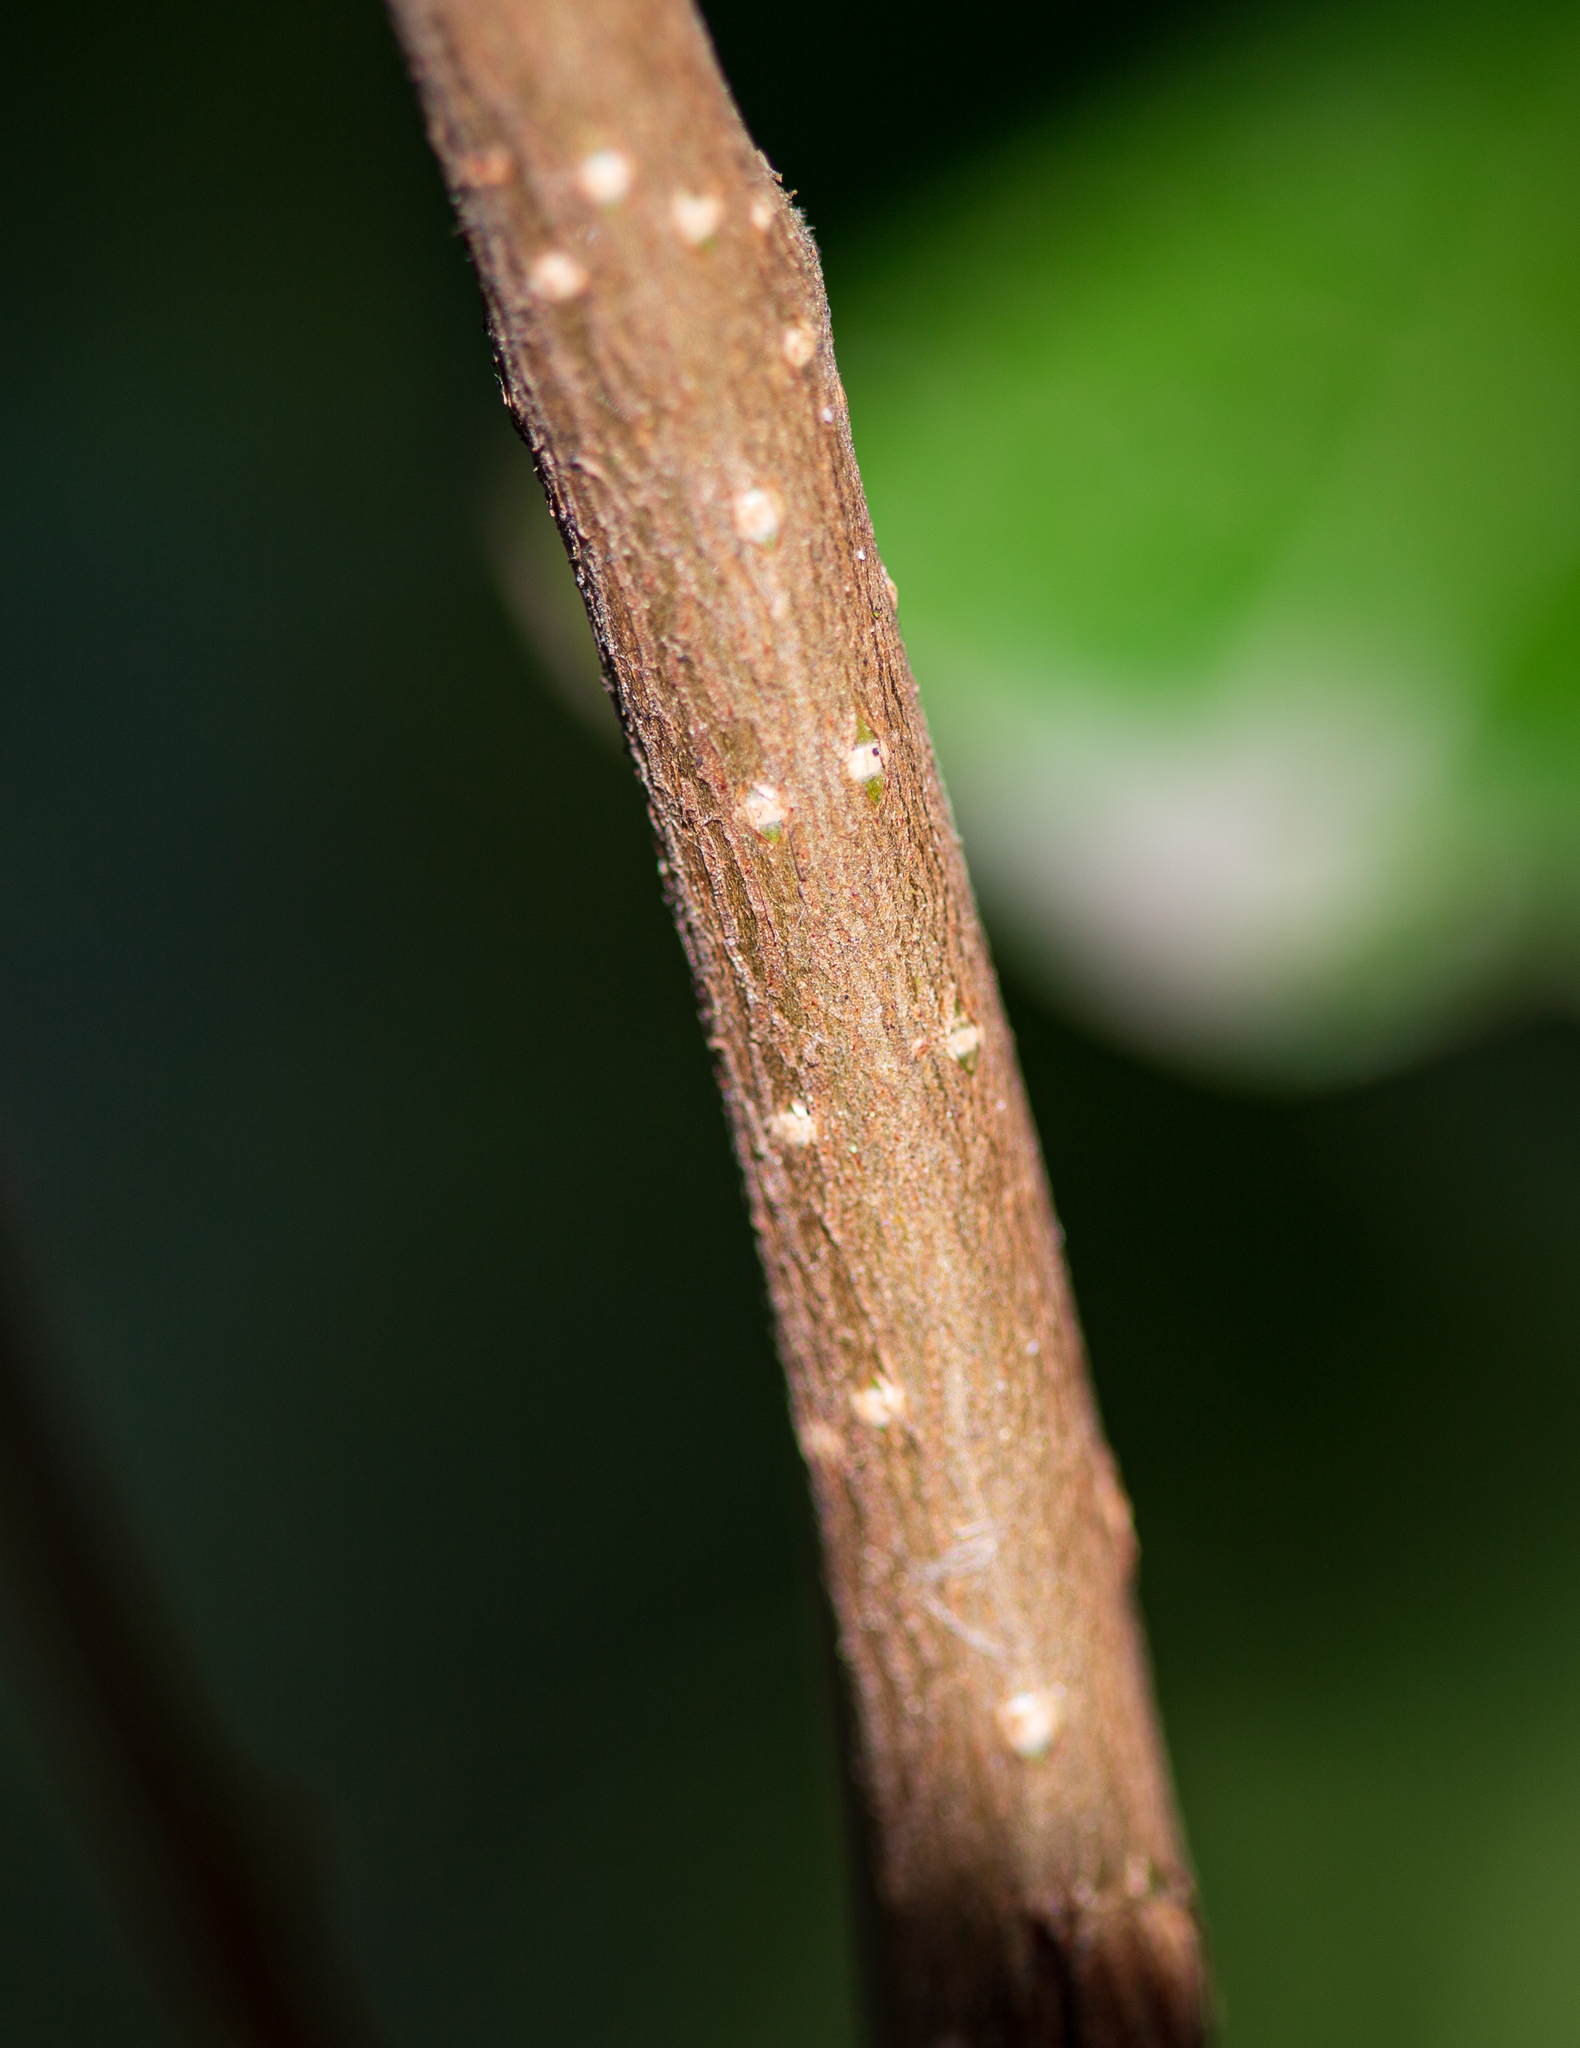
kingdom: Plantae
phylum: Tracheophyta
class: Magnoliopsida
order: Rosales
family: Rosaceae
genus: Prunus
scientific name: Prunus laurocerasus
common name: Cherry laurel
